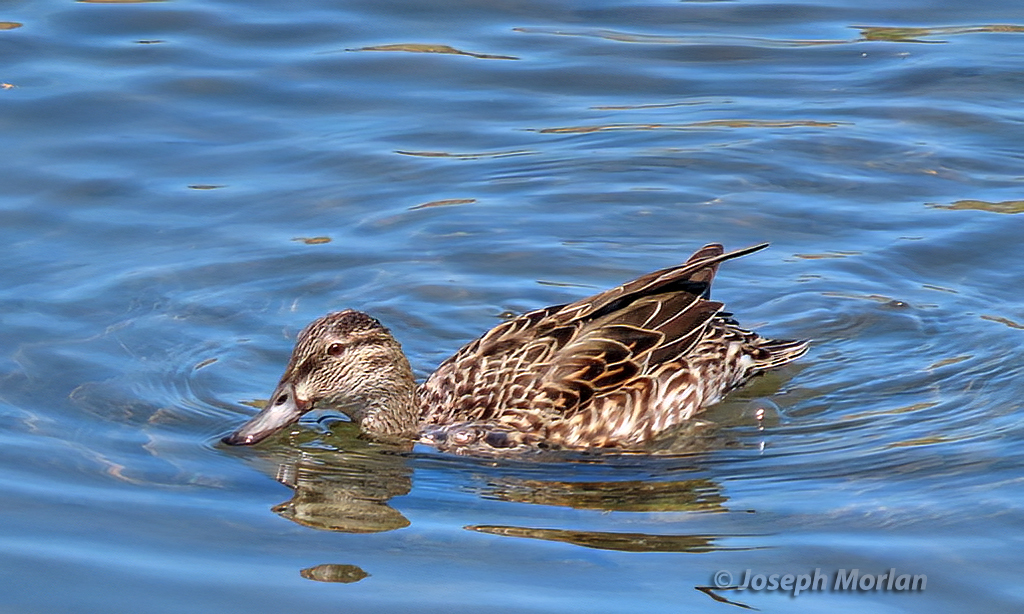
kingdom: Animalia
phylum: Chordata
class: Aves
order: Anseriformes
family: Anatidae
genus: Anas
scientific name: Anas crecca
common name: Eurasian teal
